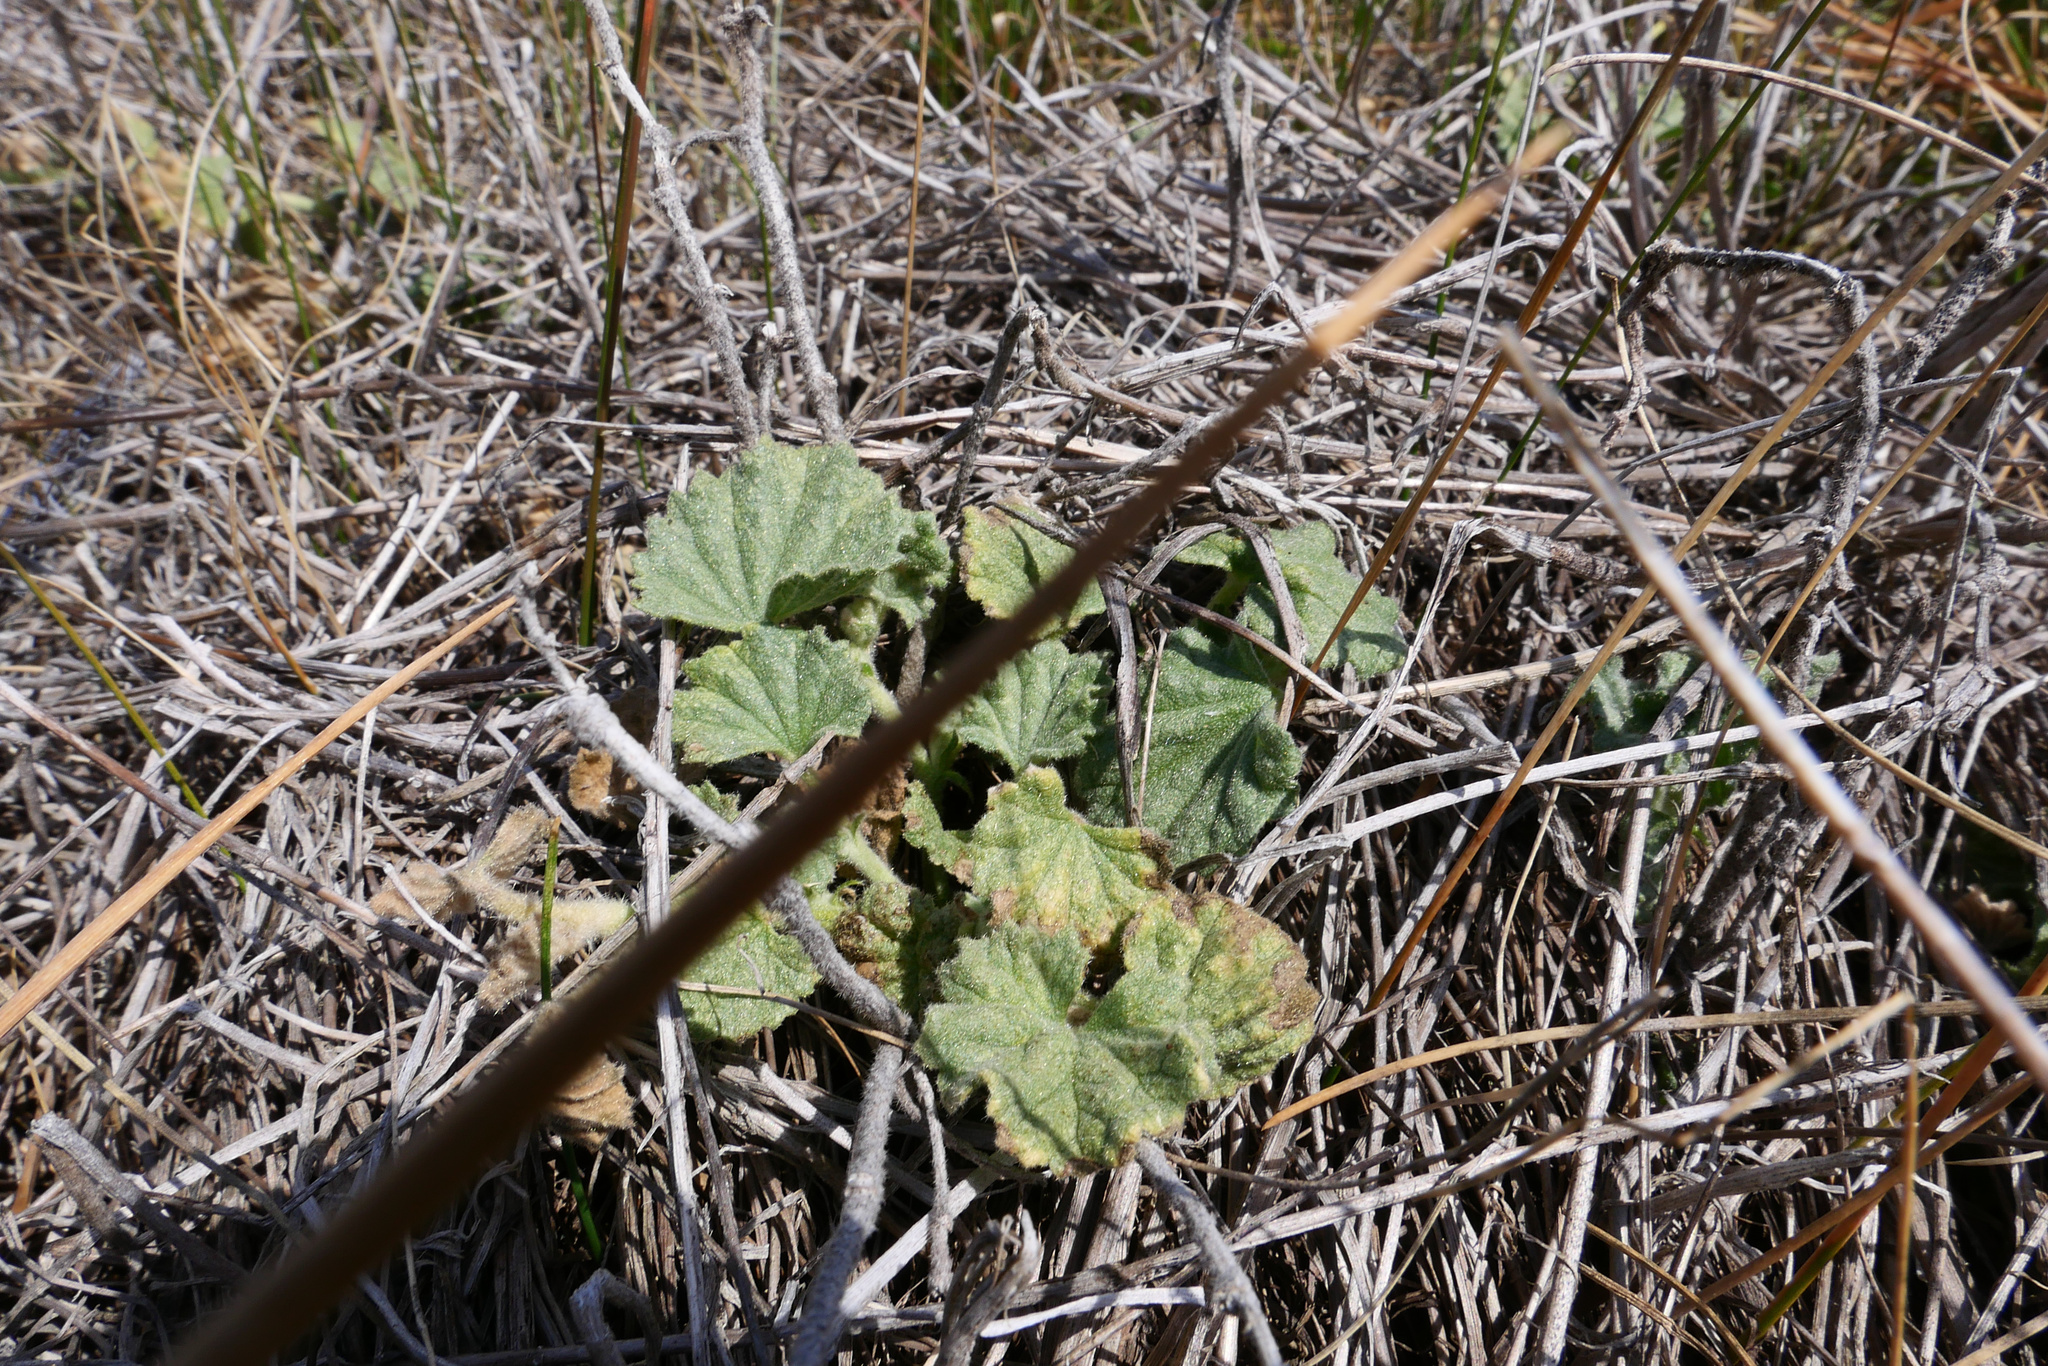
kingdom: Plantae
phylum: Tracheophyta
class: Magnoliopsida
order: Malvales
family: Malvaceae
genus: Malvella
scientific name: Malvella leprosa
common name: Alkali-mallow
